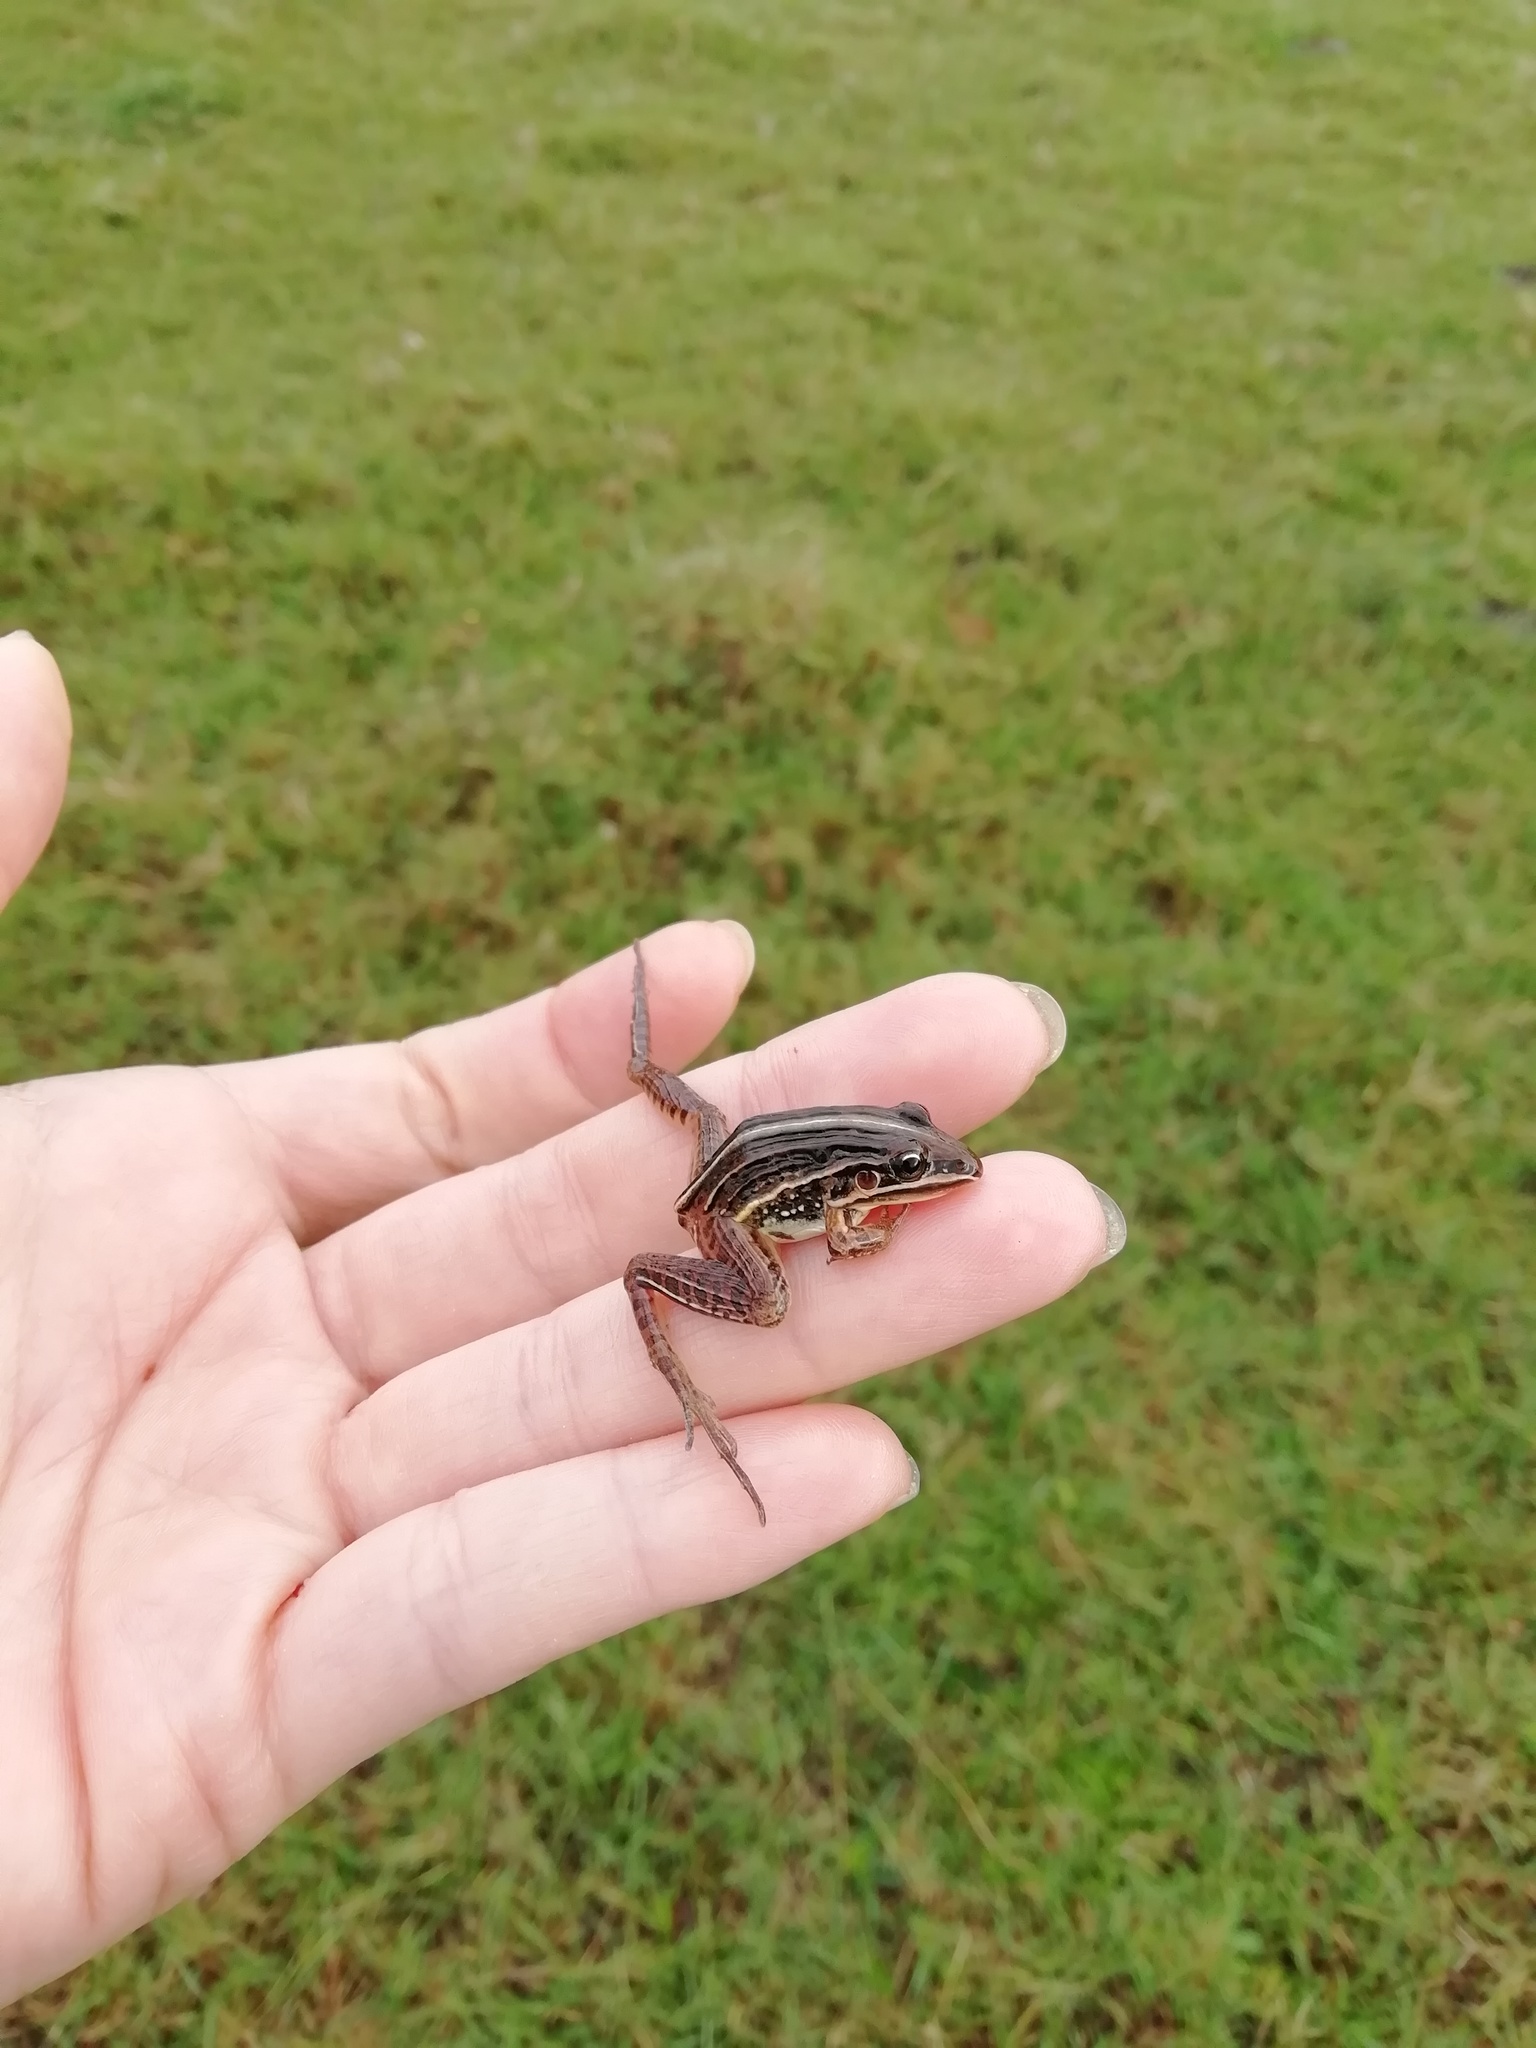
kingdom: Animalia
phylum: Chordata
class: Amphibia
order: Anura
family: Leptodactylidae
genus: Leptodactylus
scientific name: Leptodactylus gracilis
